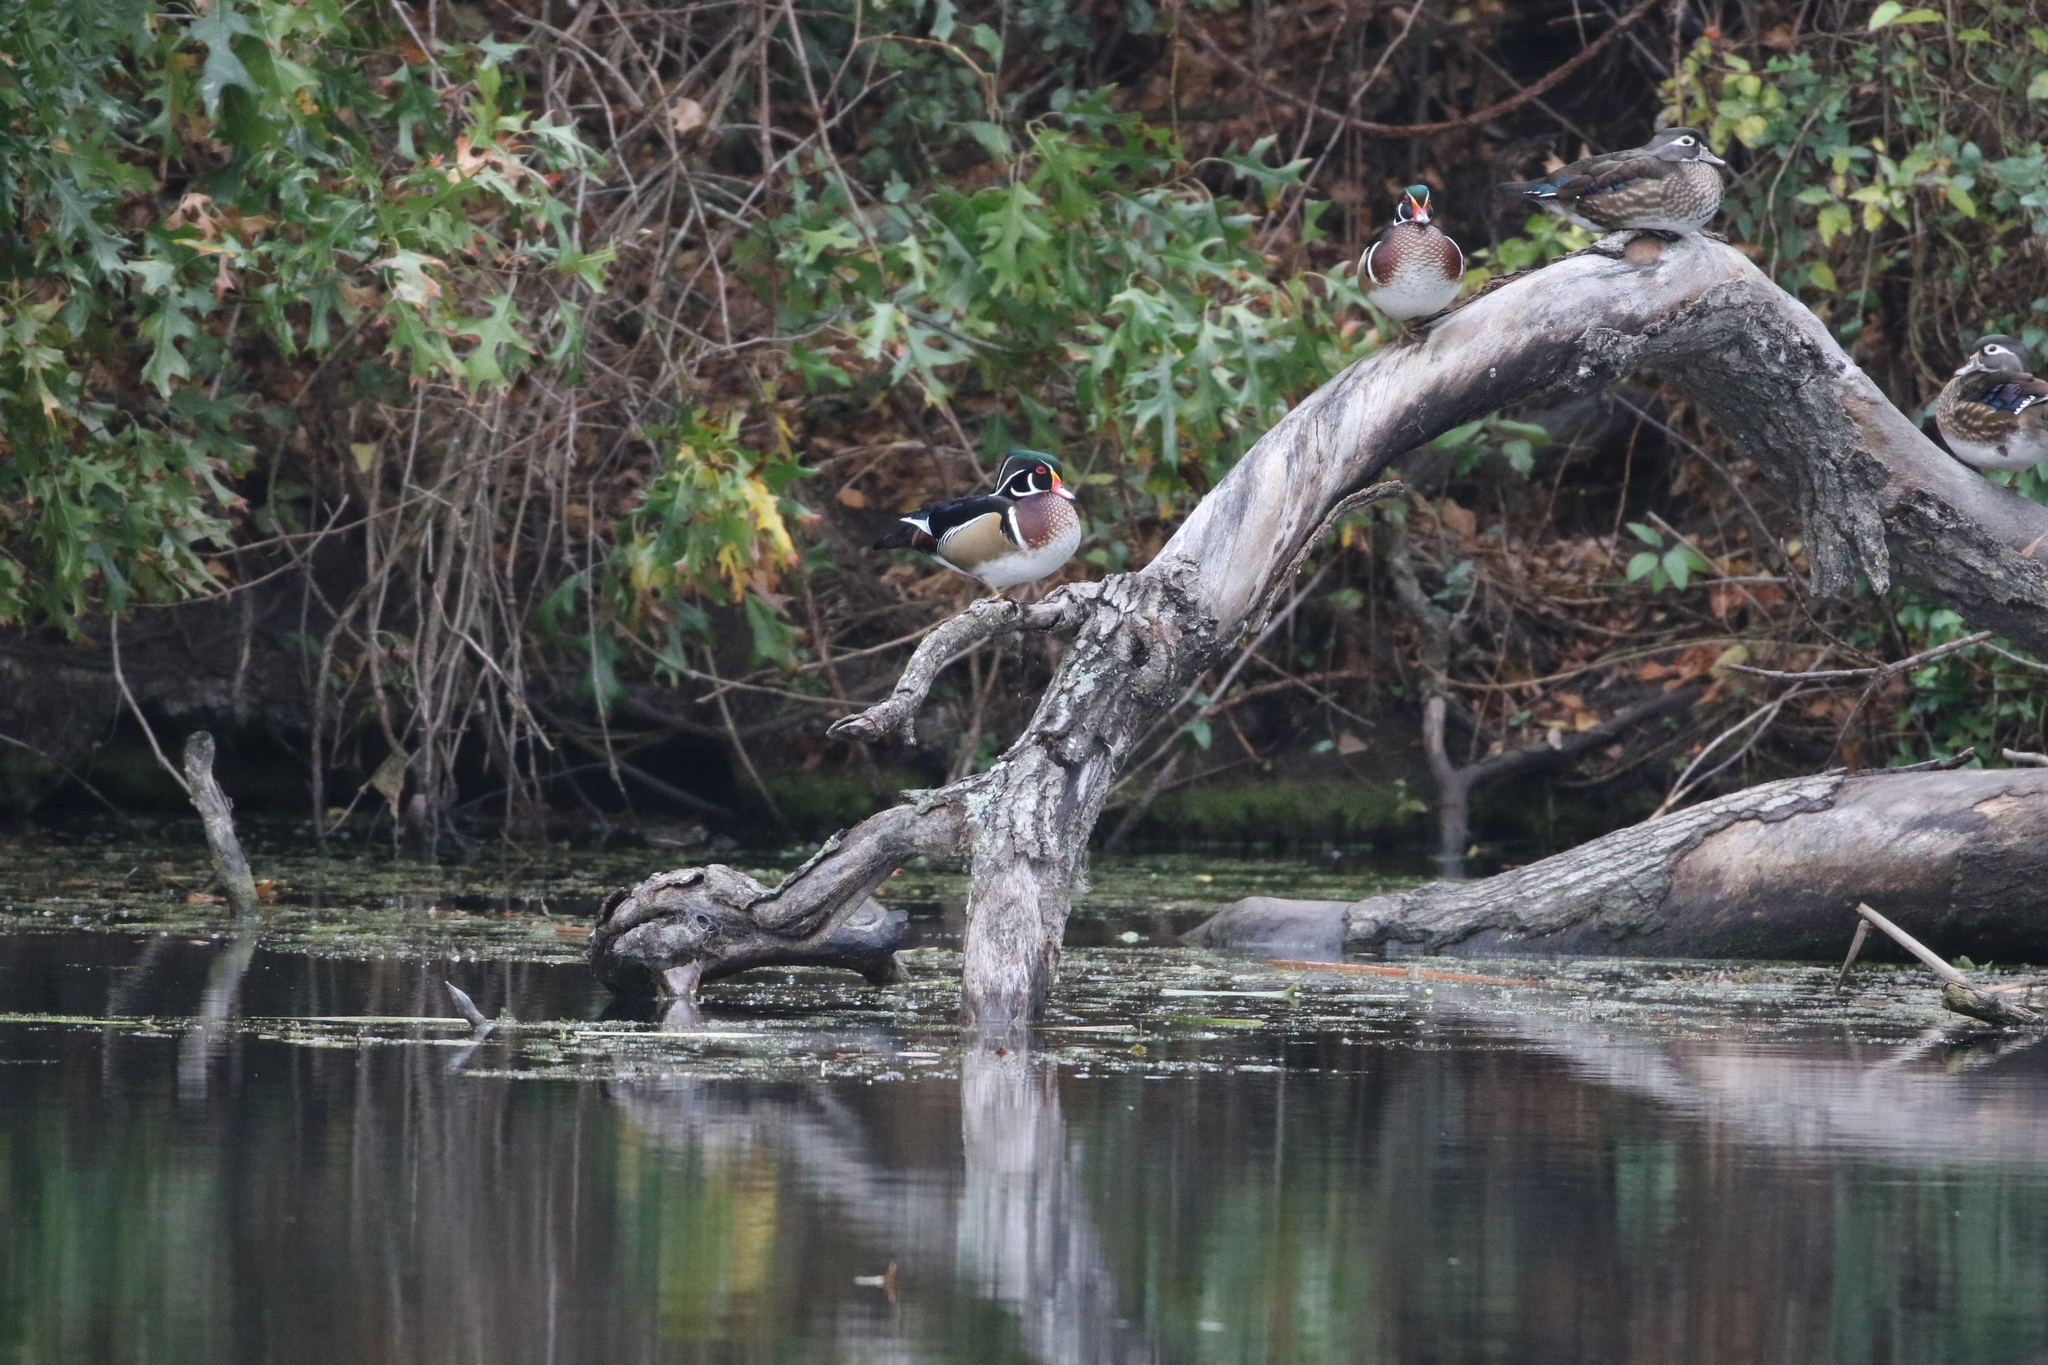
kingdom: Animalia
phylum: Chordata
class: Aves
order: Anseriformes
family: Anatidae
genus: Aix
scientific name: Aix sponsa
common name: Wood duck
